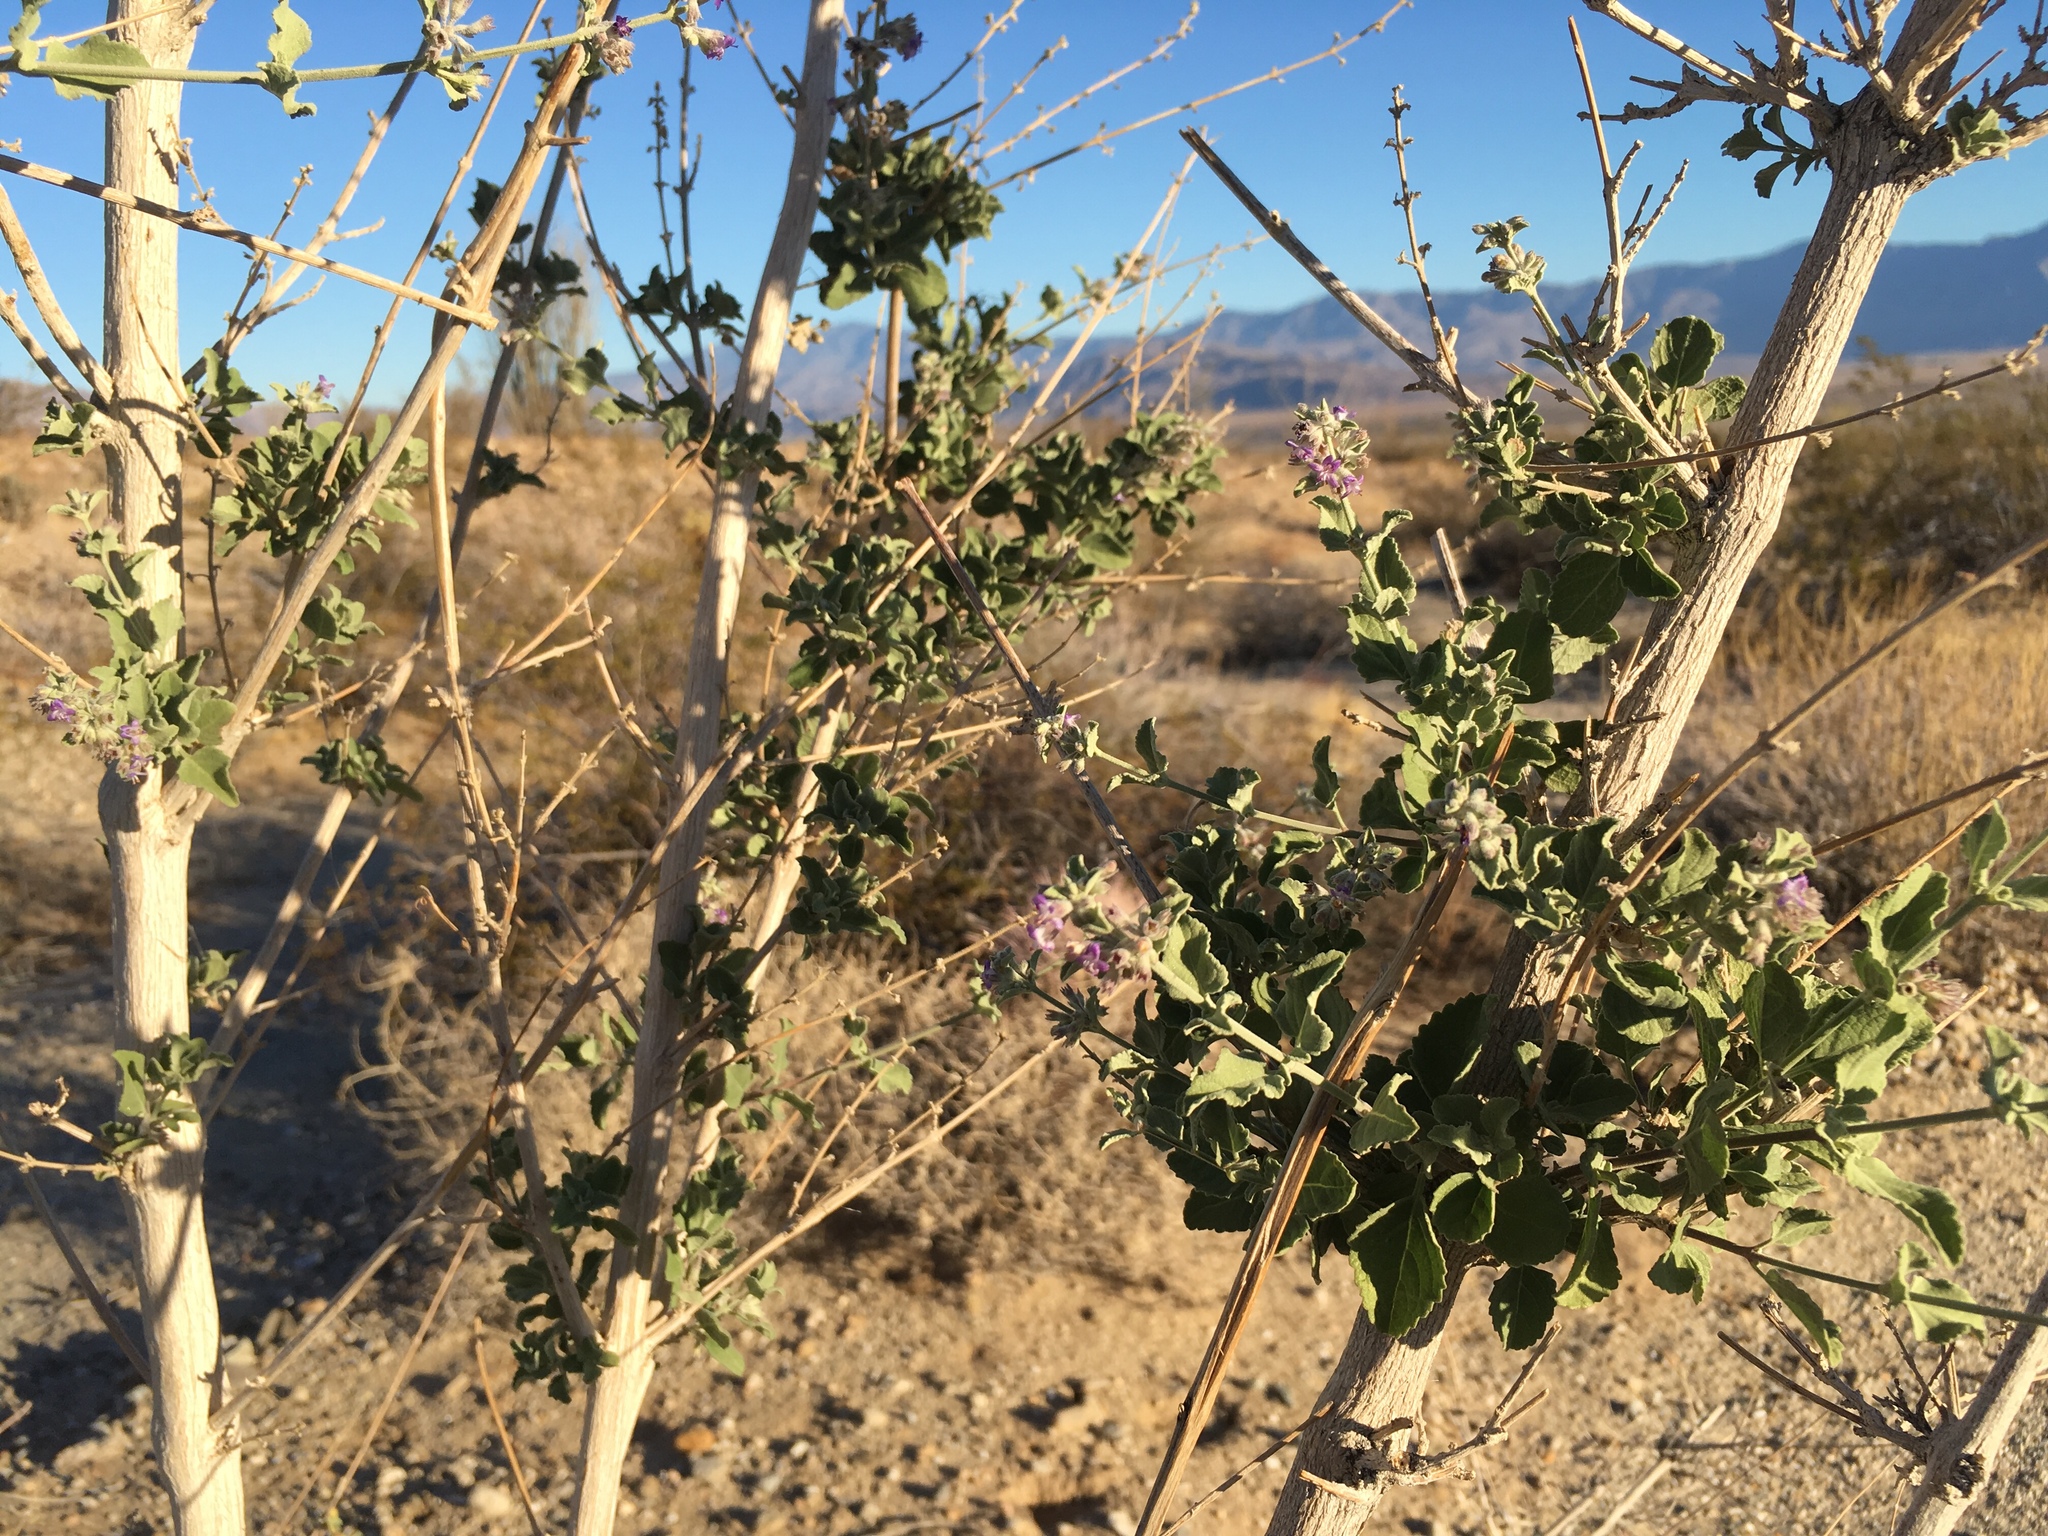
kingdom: Plantae
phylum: Tracheophyta
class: Magnoliopsida
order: Lamiales
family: Lamiaceae
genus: Condea
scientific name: Condea emoryi
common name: Chia
